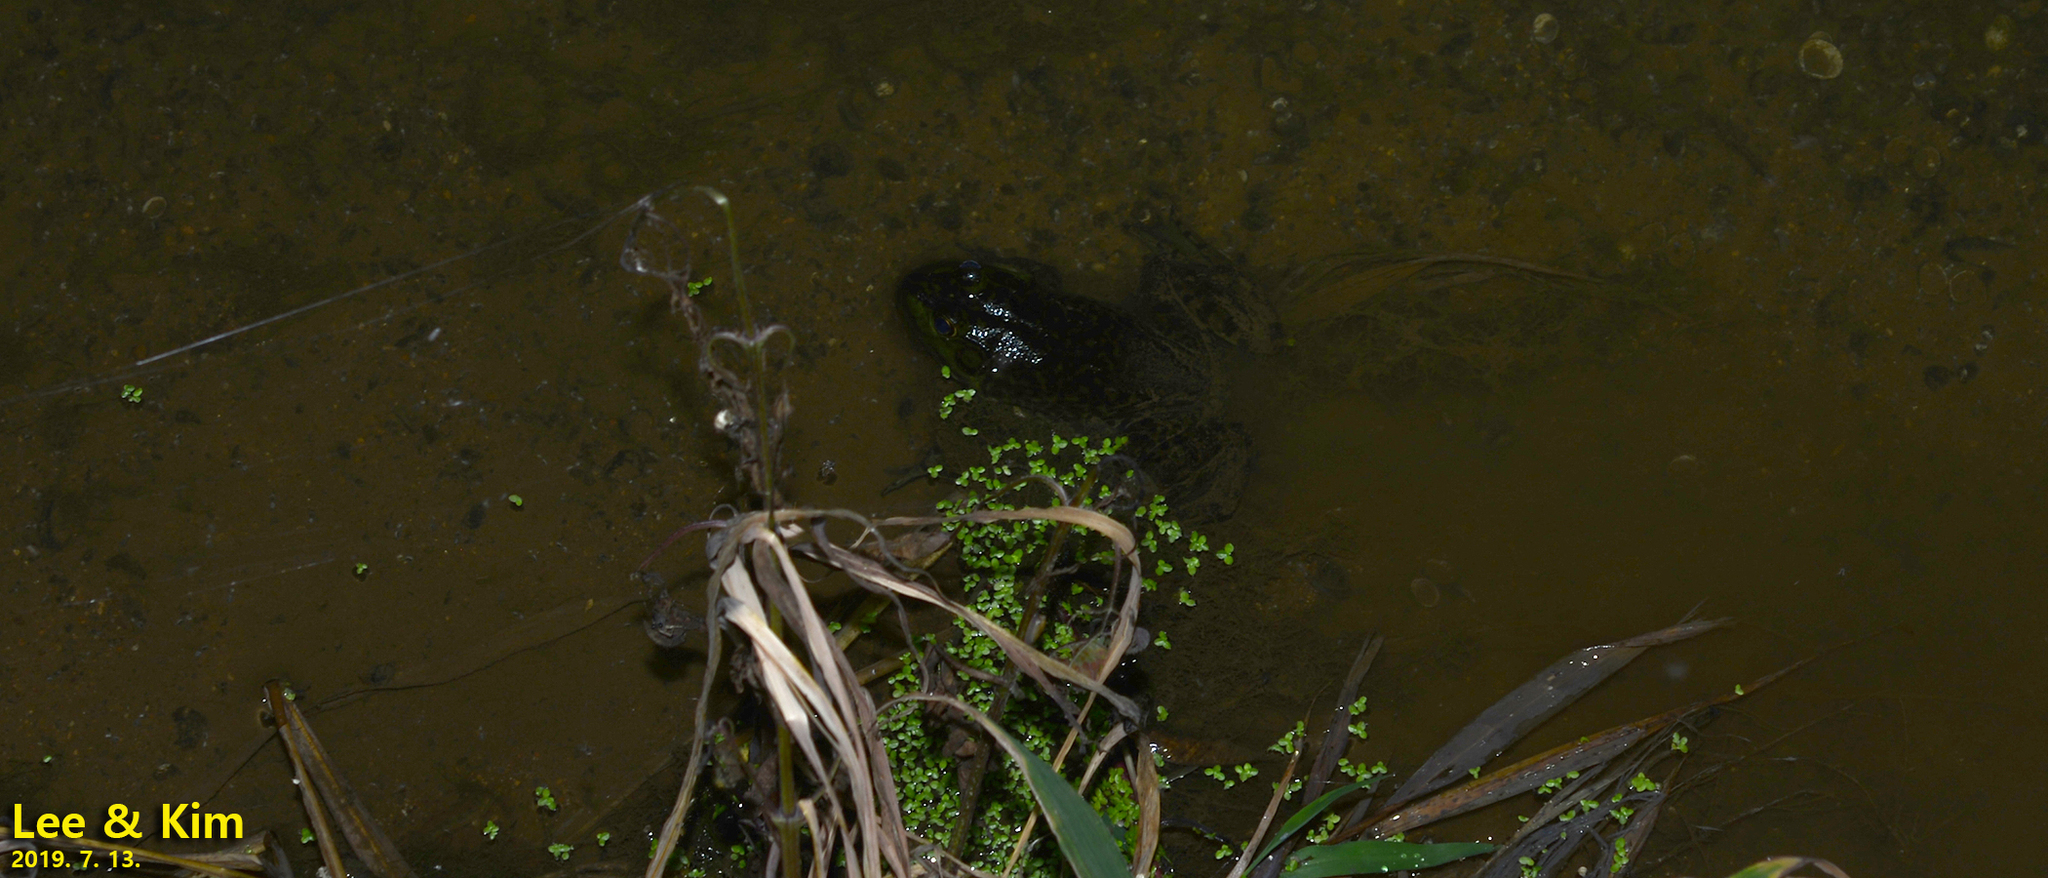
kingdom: Animalia
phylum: Chordata
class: Amphibia
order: Anura
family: Ranidae
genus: Lithobates
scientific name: Lithobates catesbeianus
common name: American bullfrog
